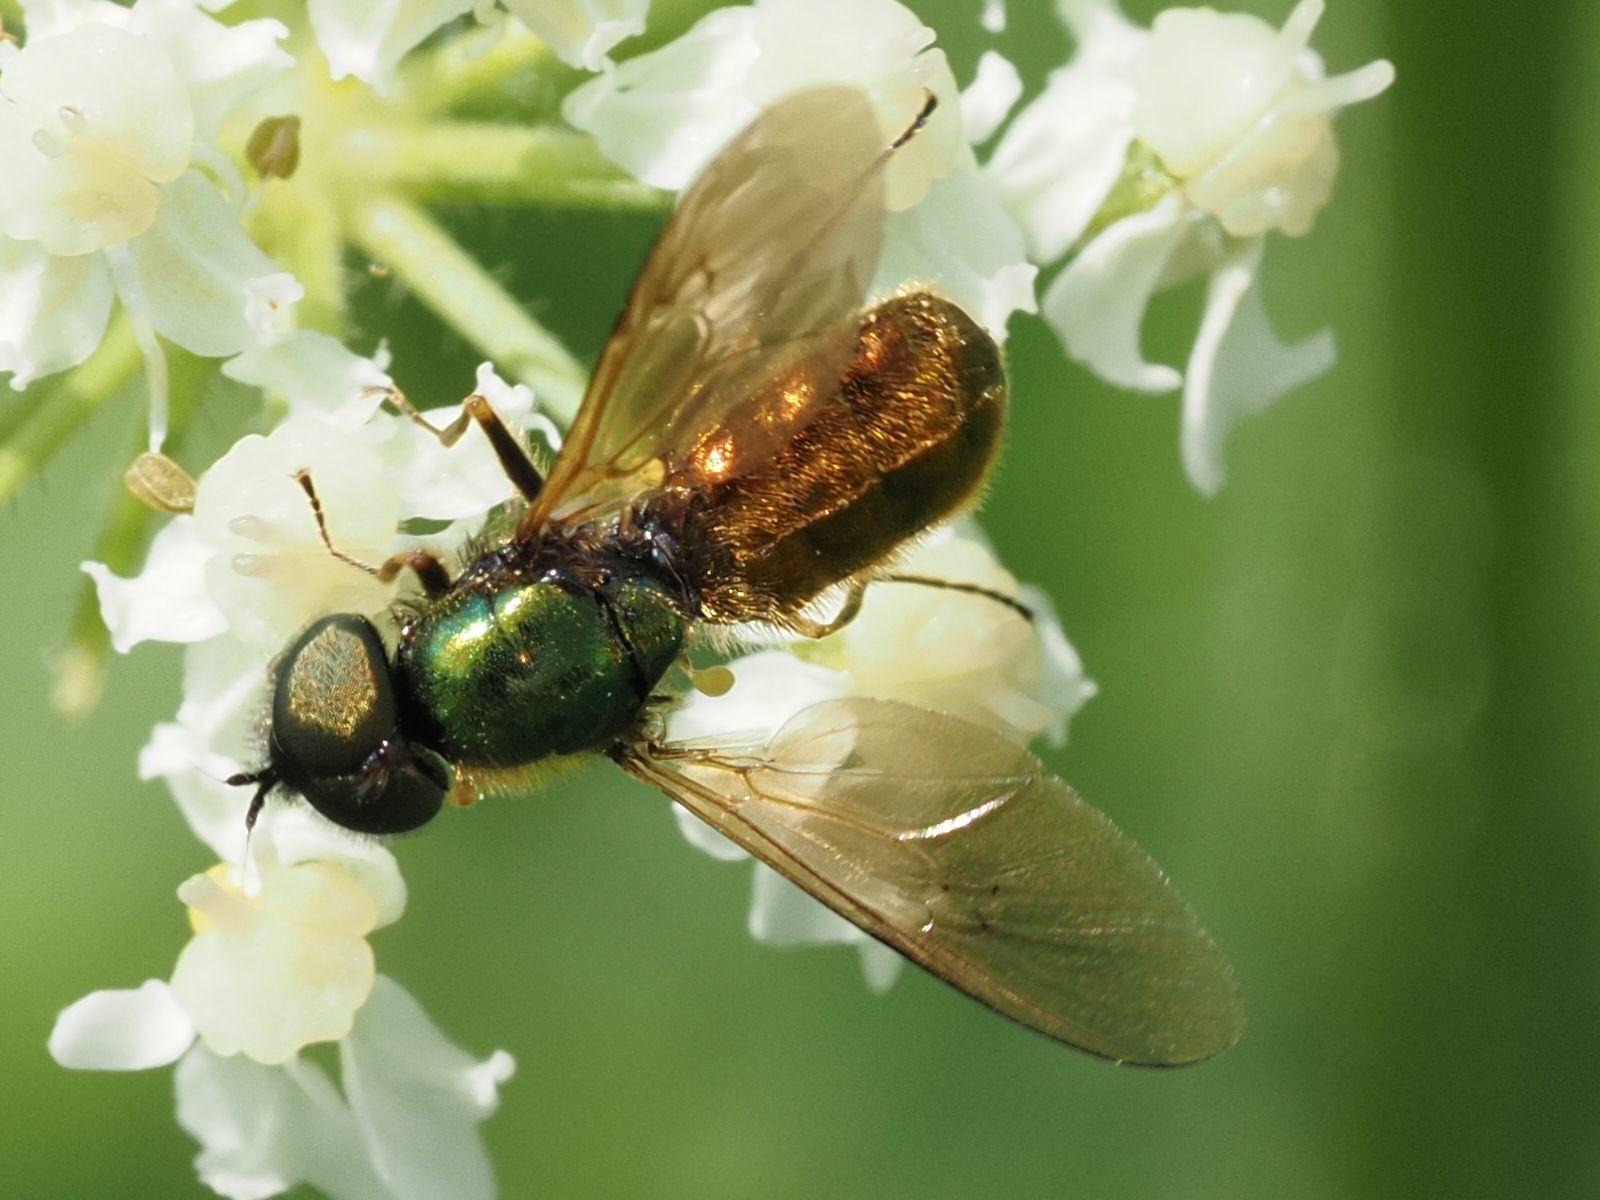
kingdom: Animalia
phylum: Arthropoda
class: Insecta
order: Diptera
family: Stratiomyidae
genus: Chloromyia
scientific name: Chloromyia formosa
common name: Soldier fly
